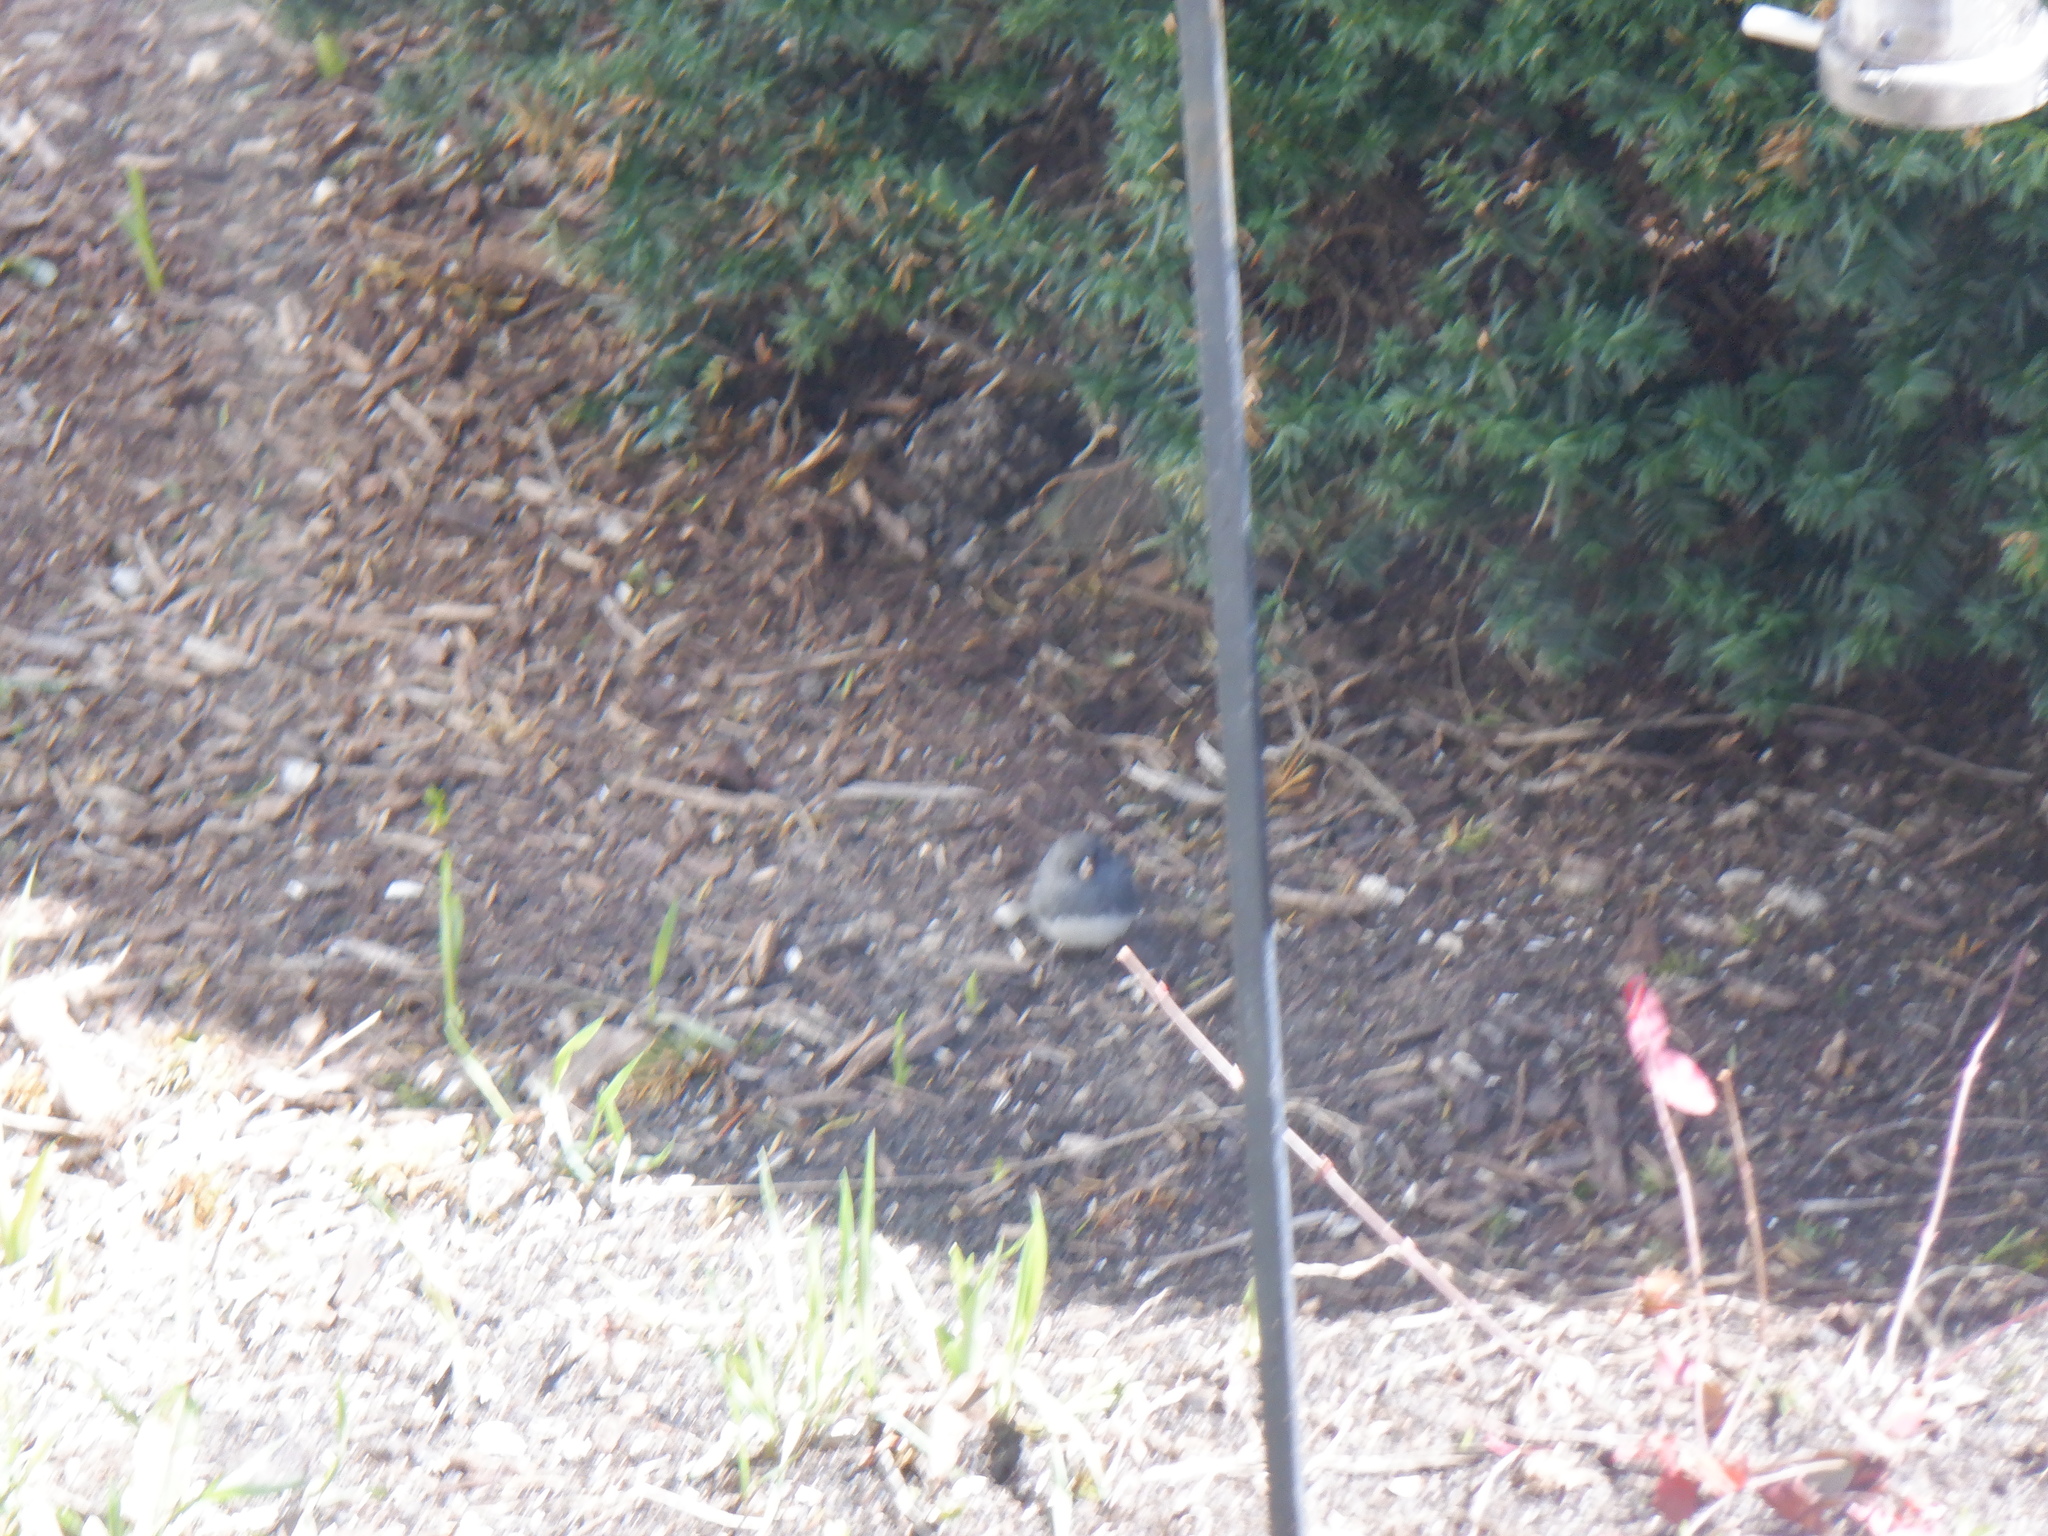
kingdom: Animalia
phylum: Chordata
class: Aves
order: Passeriformes
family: Passerellidae
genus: Junco
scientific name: Junco hyemalis
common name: Dark-eyed junco
